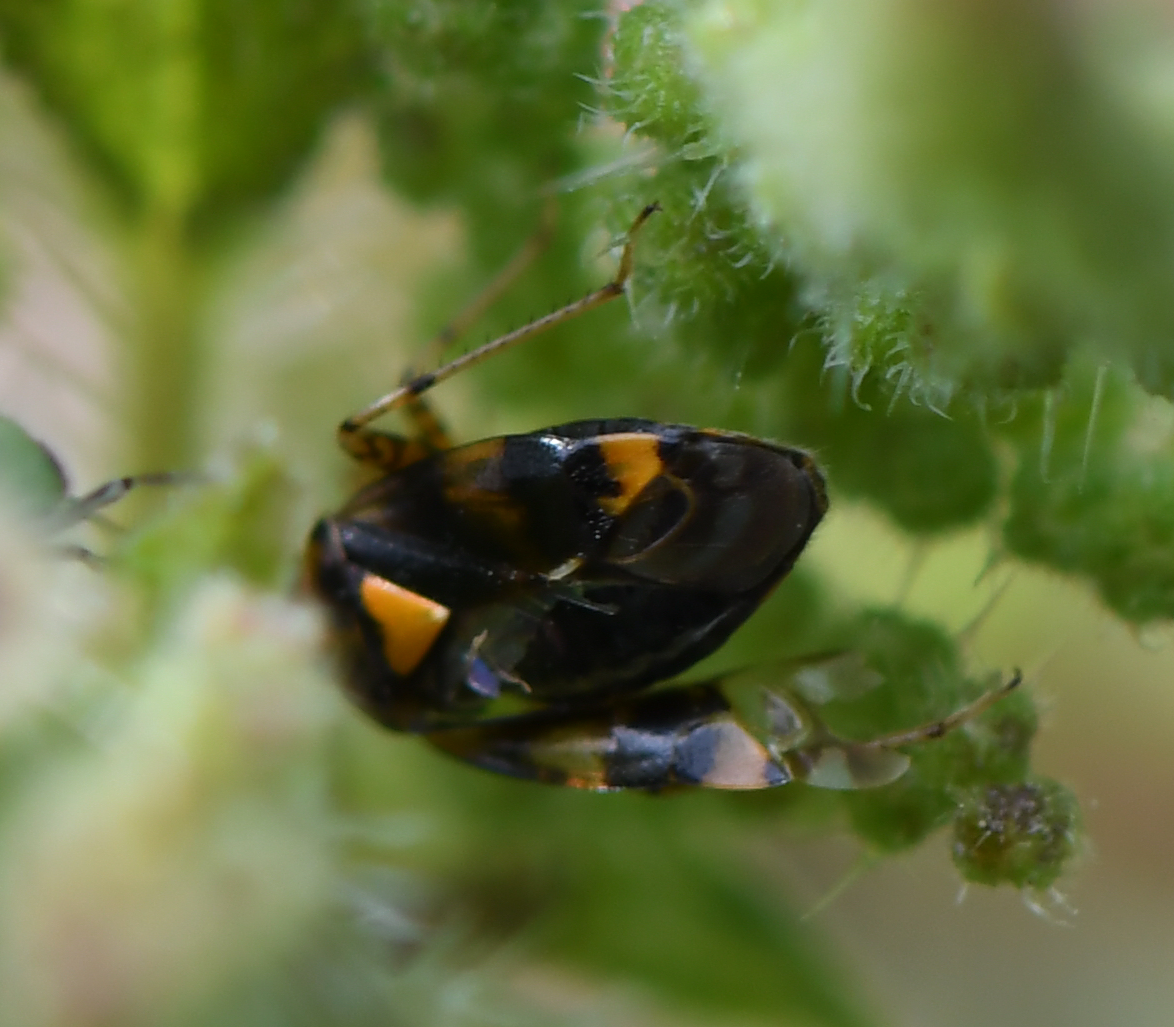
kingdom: Animalia
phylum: Arthropoda
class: Insecta
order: Hemiptera
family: Miridae
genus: Liocoris
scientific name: Liocoris tripustulatus
